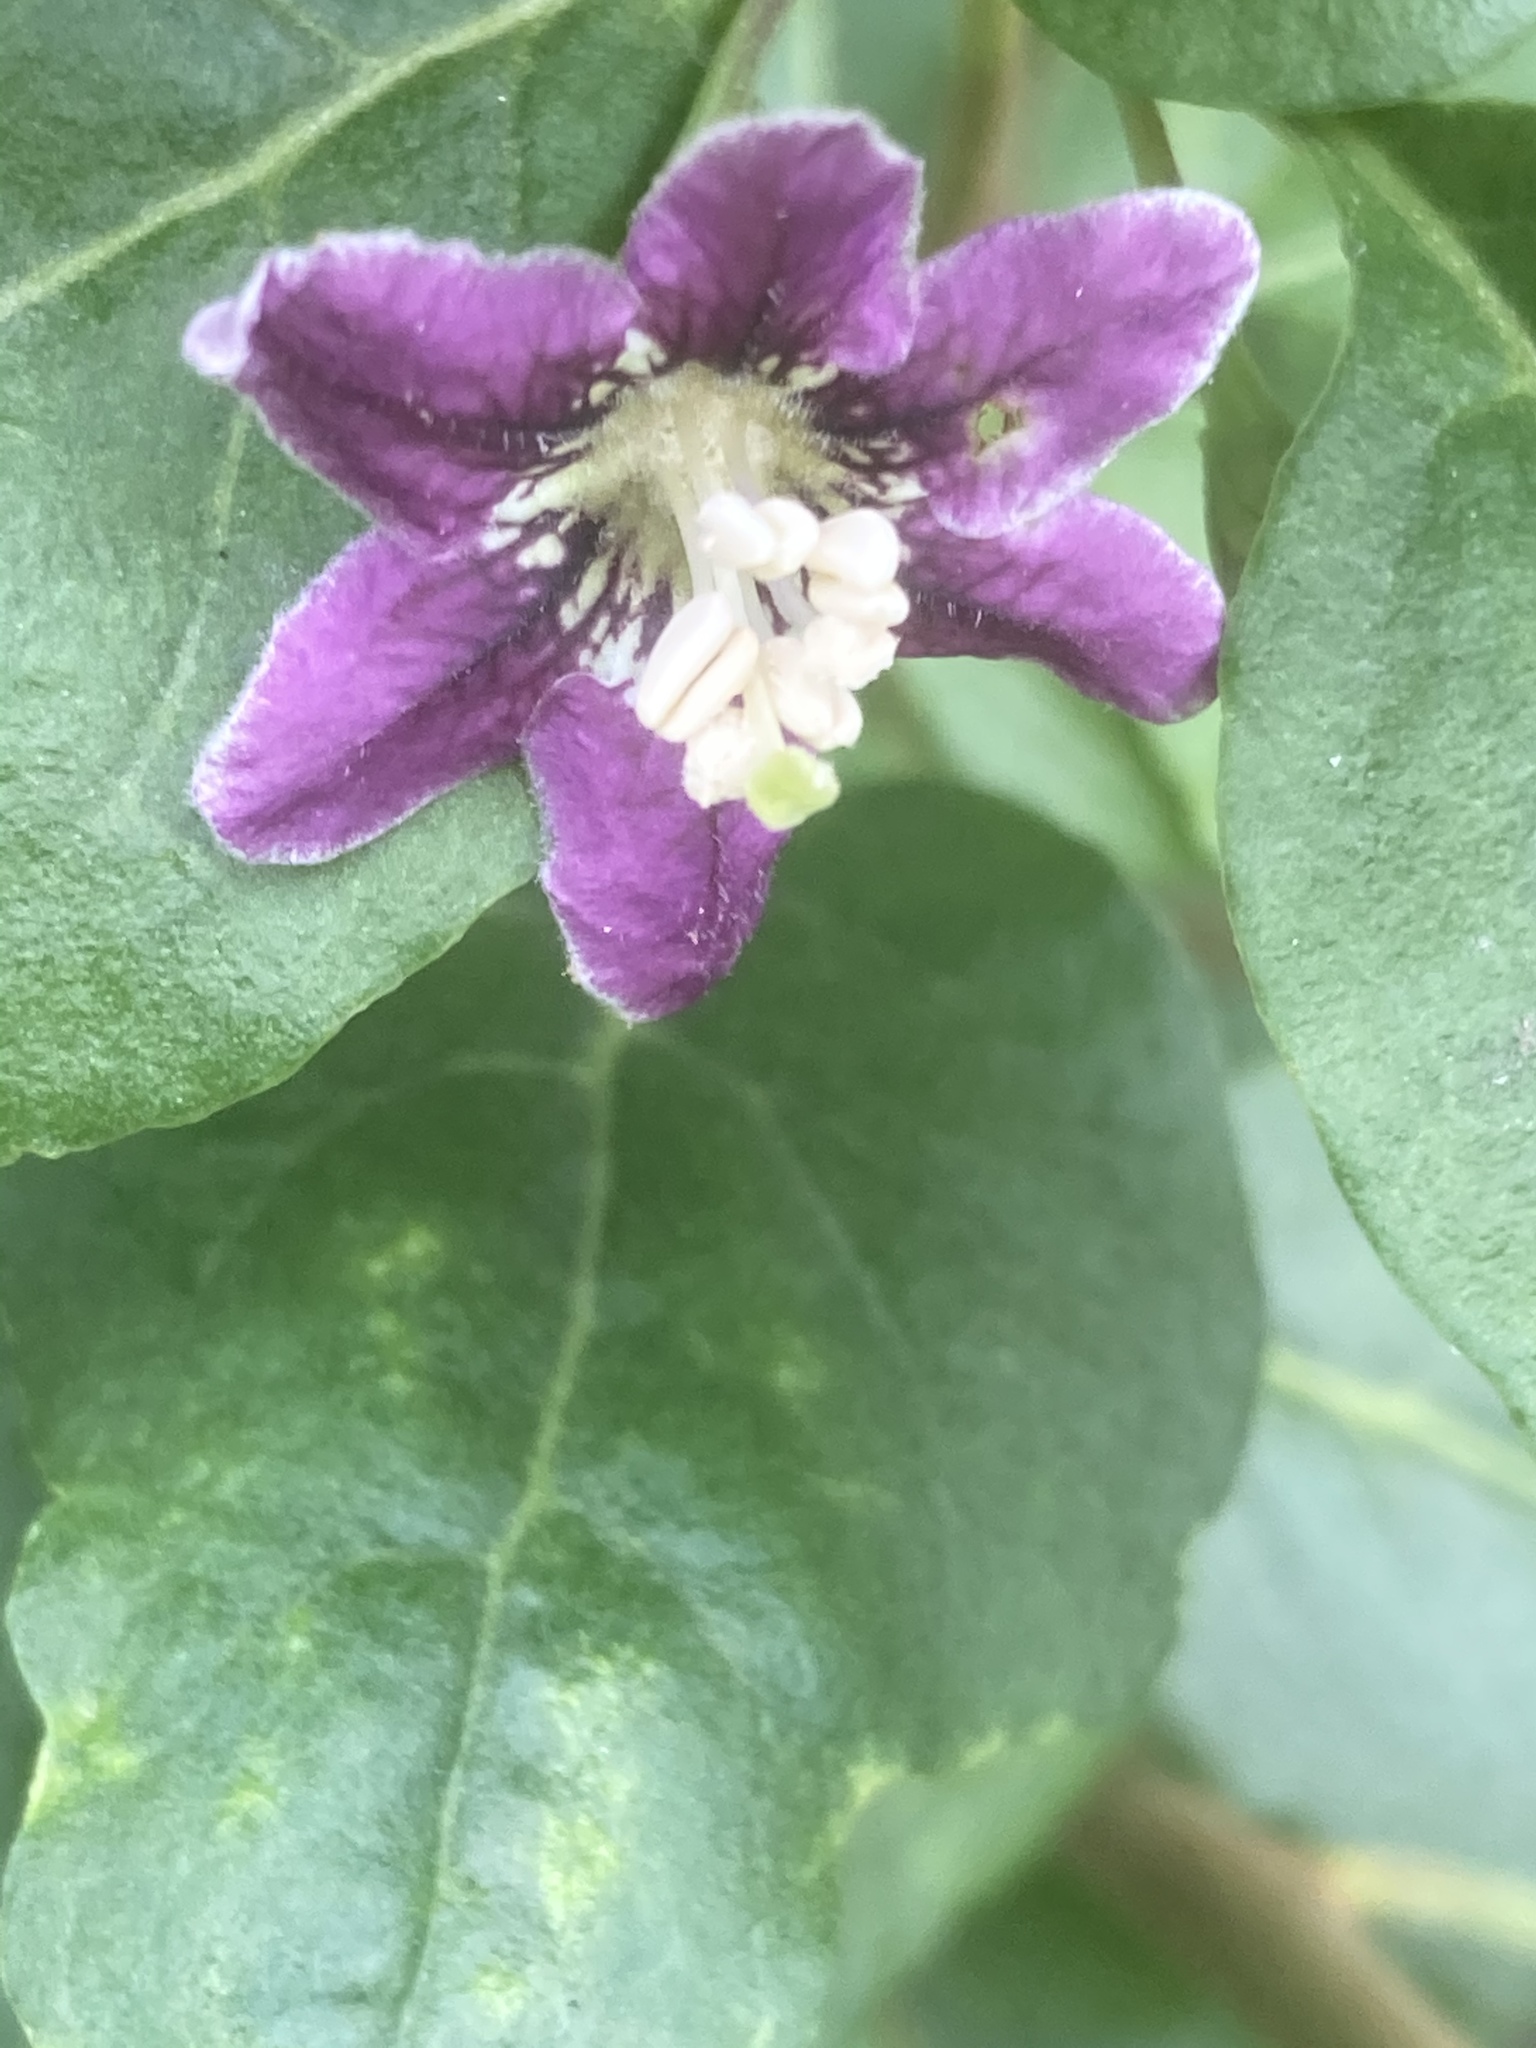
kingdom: Plantae
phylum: Tracheophyta
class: Magnoliopsida
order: Solanales
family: Solanaceae
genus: Lycium
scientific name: Lycium barbarum
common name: Duke of argyll's teaplant
